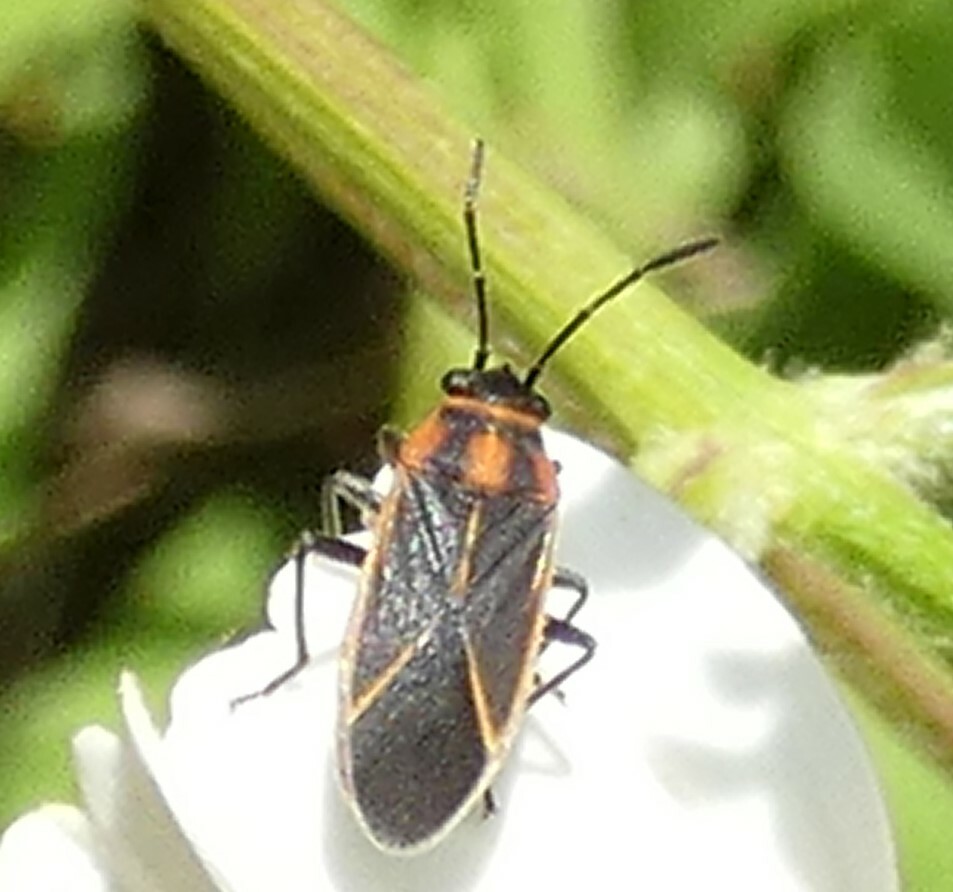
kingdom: Animalia
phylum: Arthropoda
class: Insecta
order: Hemiptera
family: Lygaeidae
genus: Ochrimnus
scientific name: Ochrimnus lineoloides
